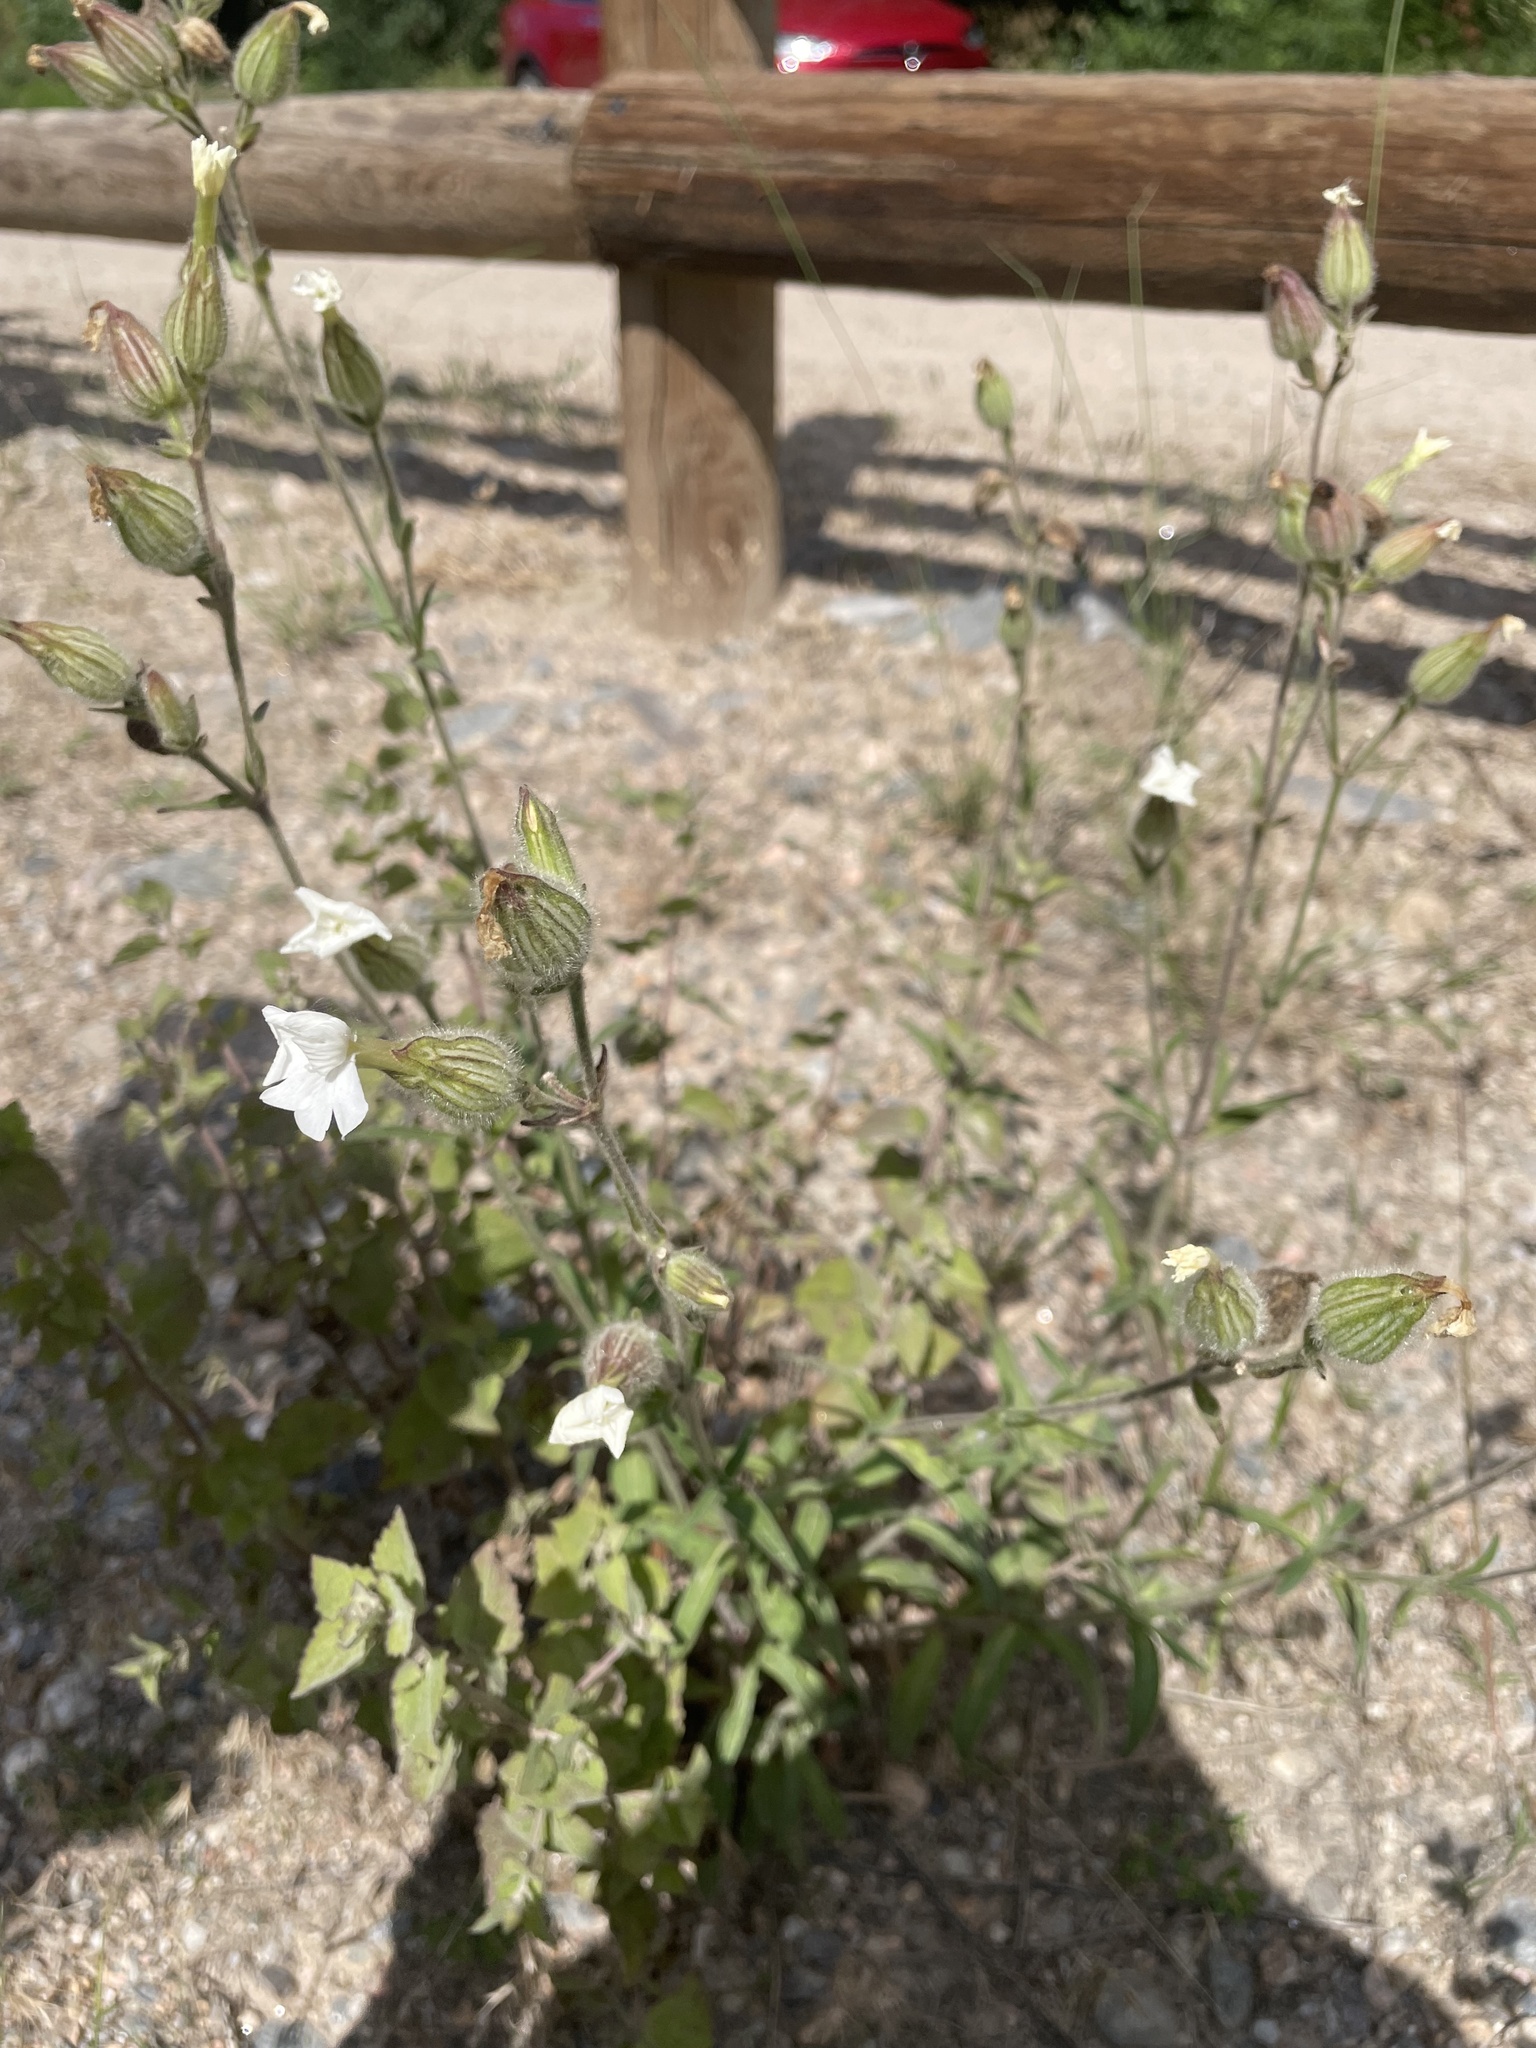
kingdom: Plantae
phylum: Tracheophyta
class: Magnoliopsida
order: Caryophyllales
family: Caryophyllaceae
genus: Silene
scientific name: Silene latifolia
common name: White campion
